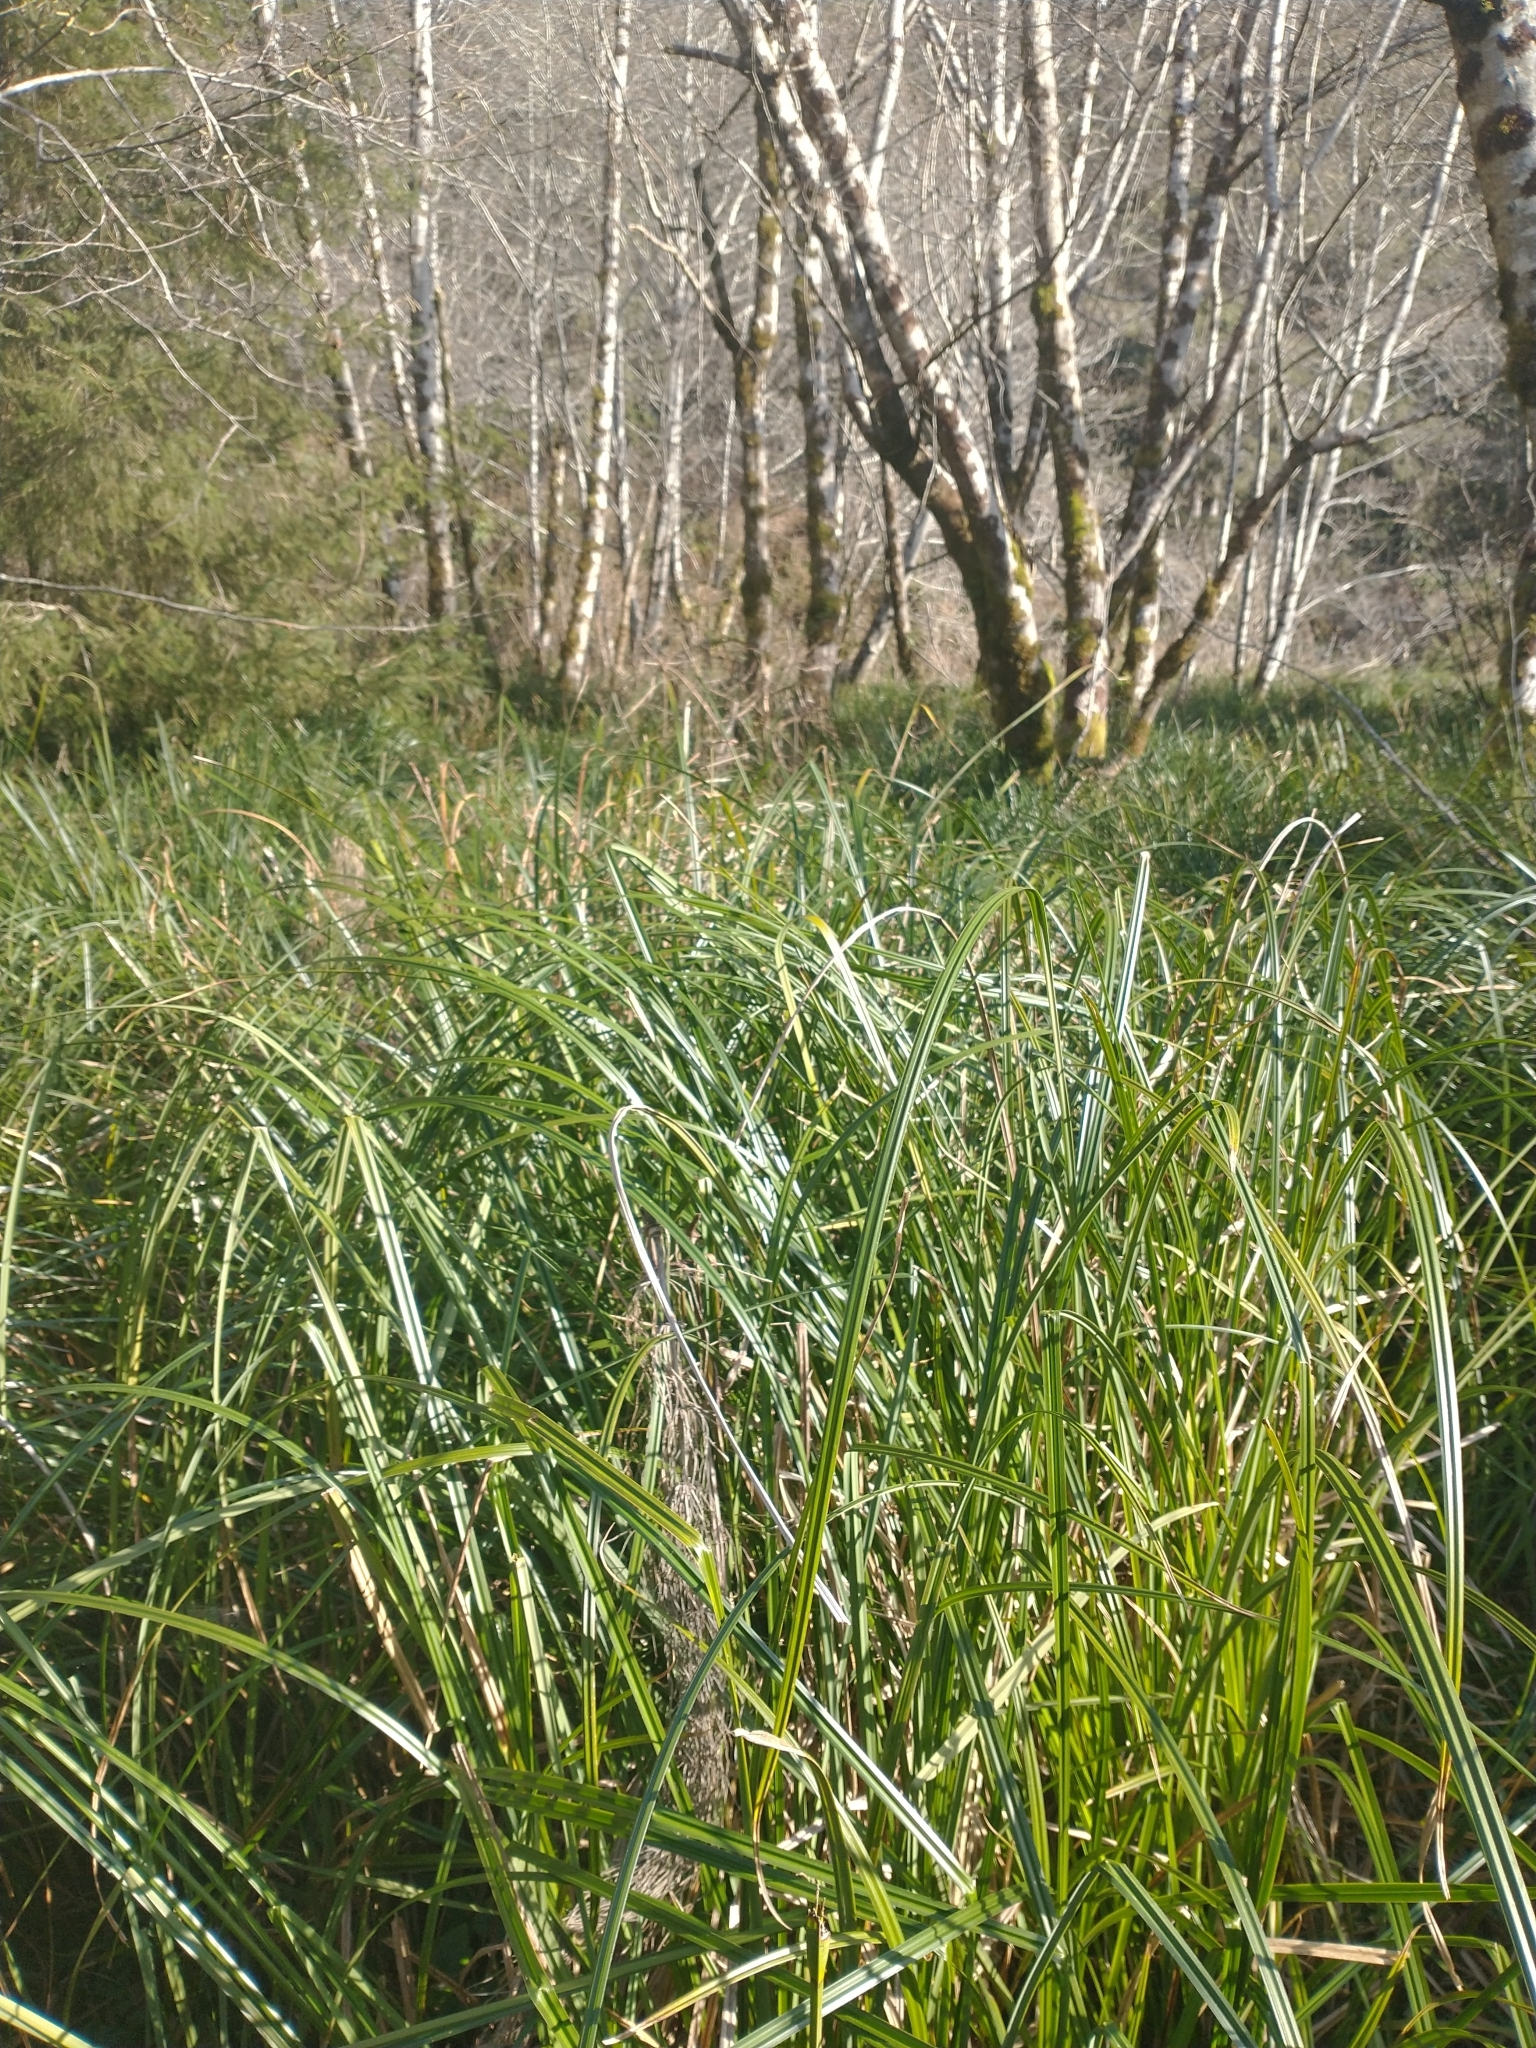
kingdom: Plantae
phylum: Tracheophyta
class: Liliopsida
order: Poales
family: Cyperaceae
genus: Carex
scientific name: Carex obnupta
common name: Slough sedge
